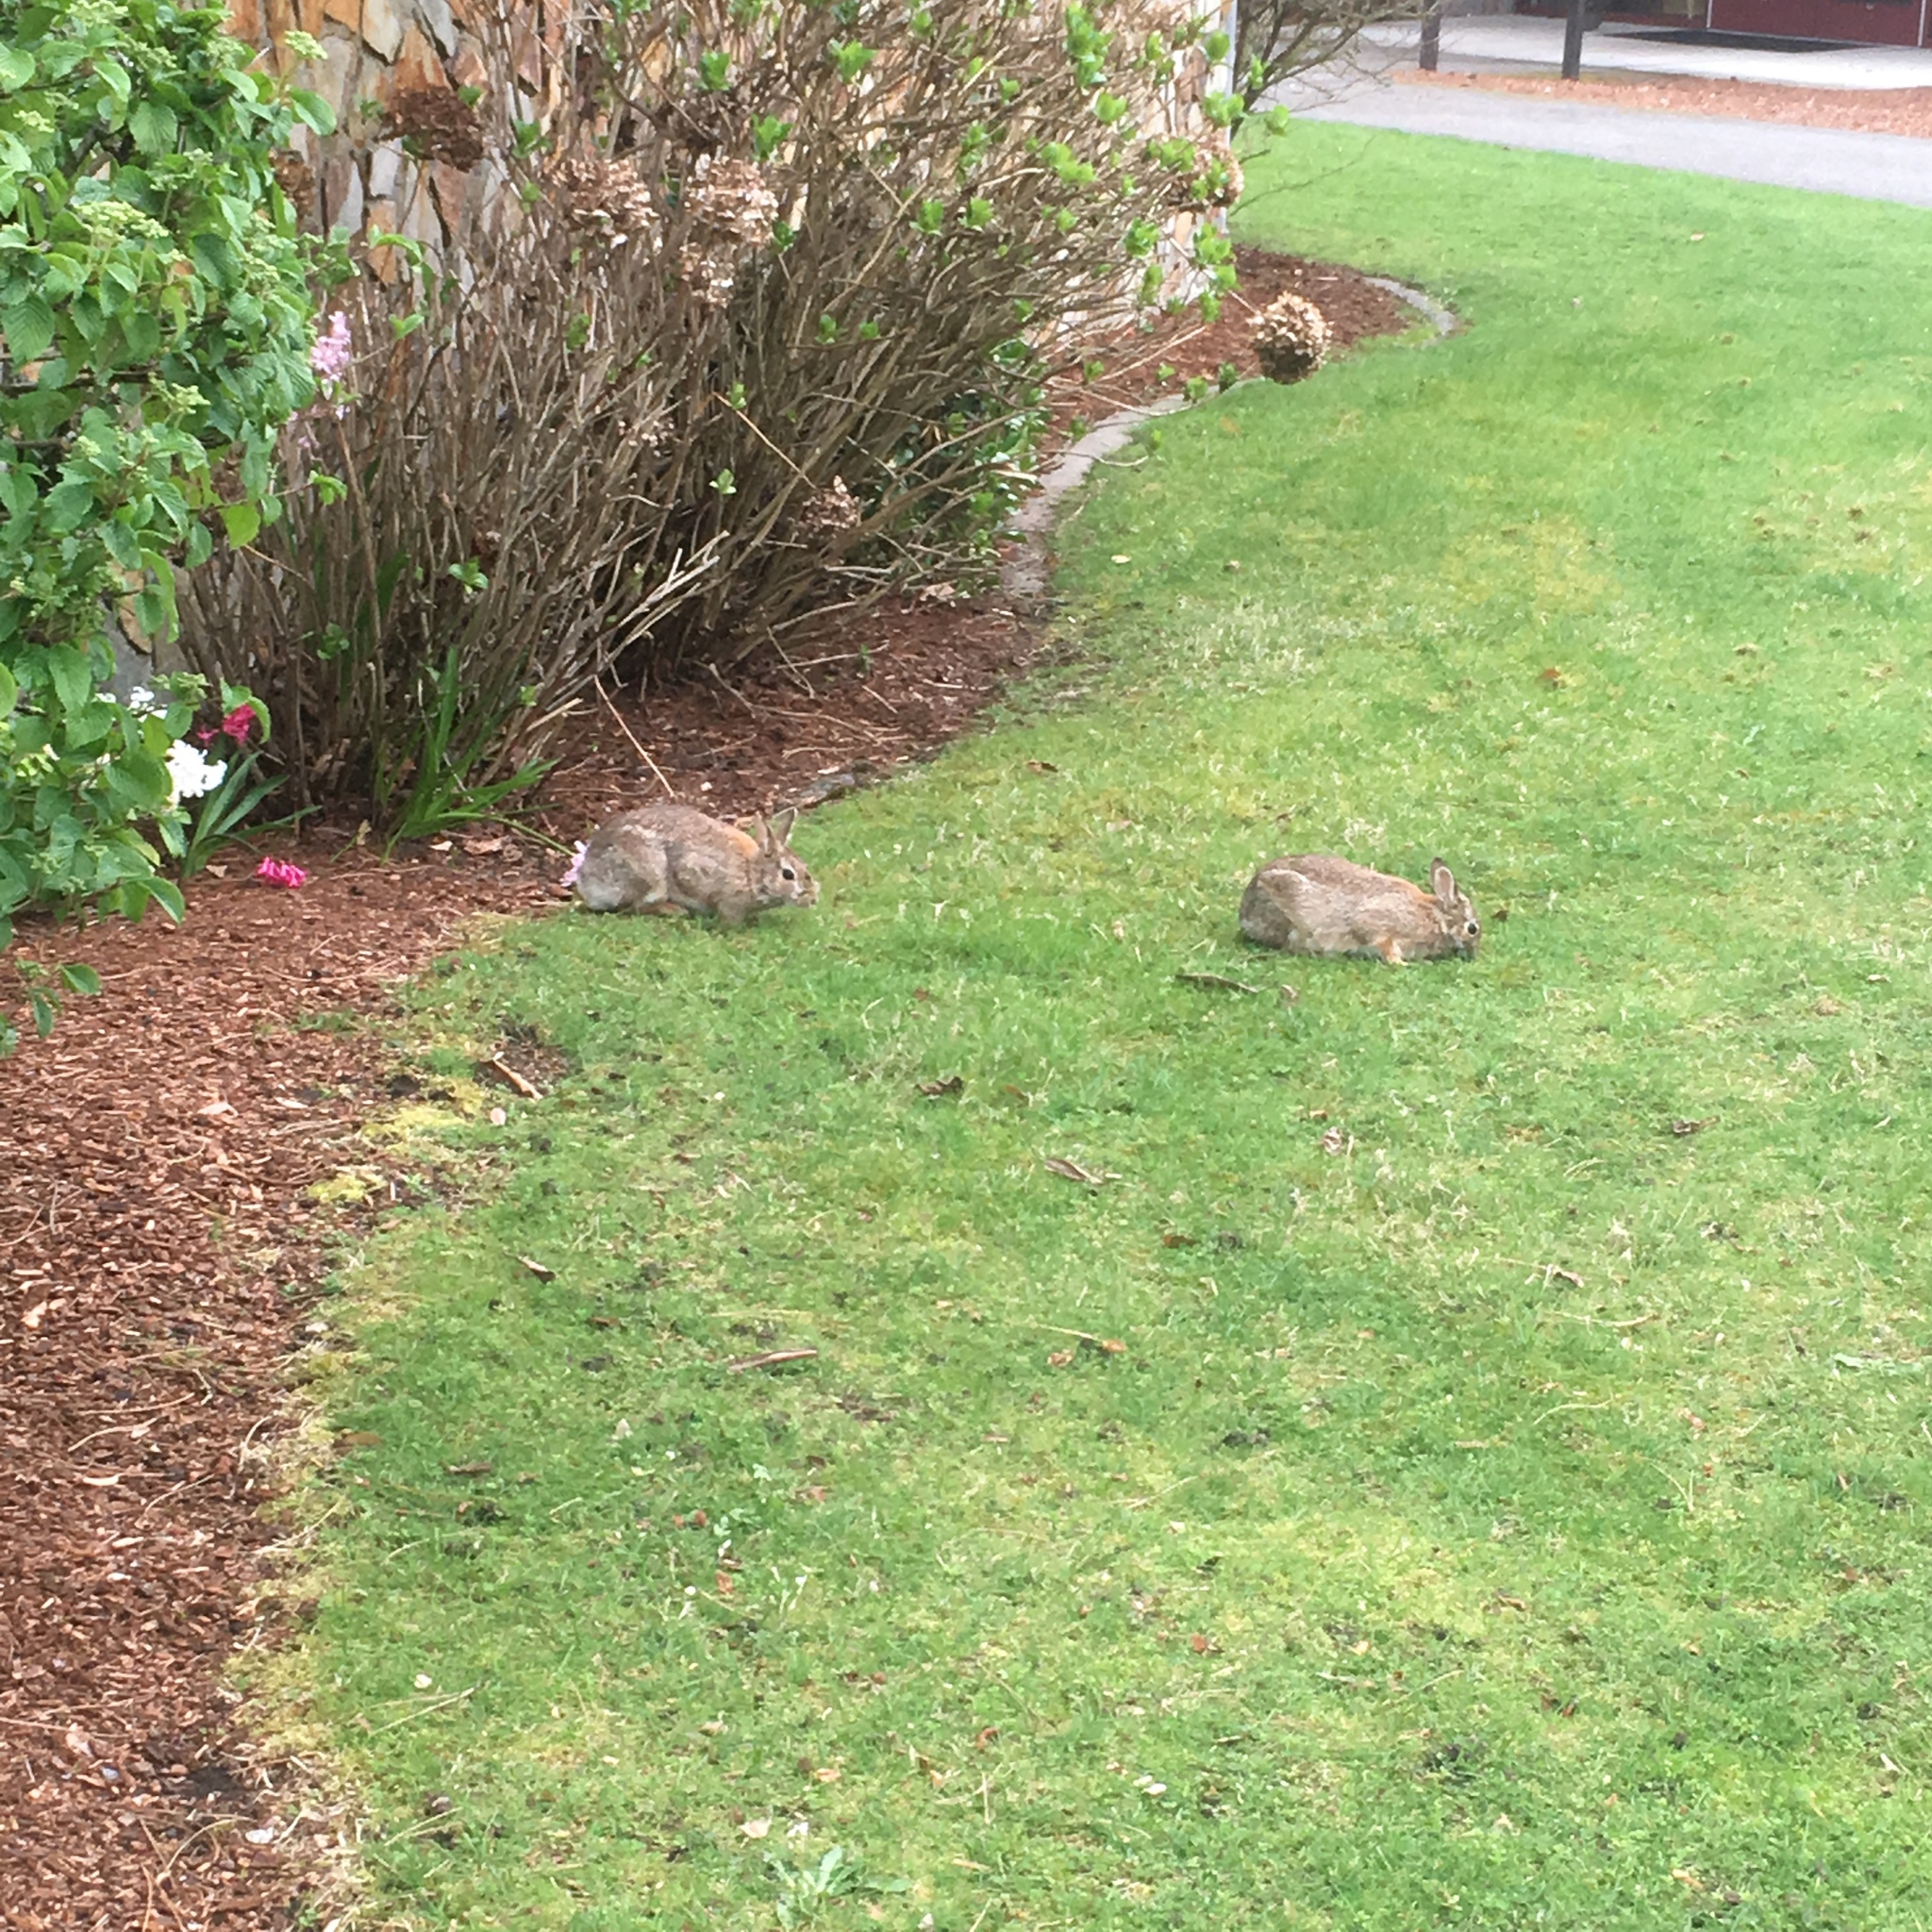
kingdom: Animalia
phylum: Chordata
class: Mammalia
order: Lagomorpha
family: Leporidae
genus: Sylvilagus
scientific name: Sylvilagus floridanus
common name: Eastern cottontail
